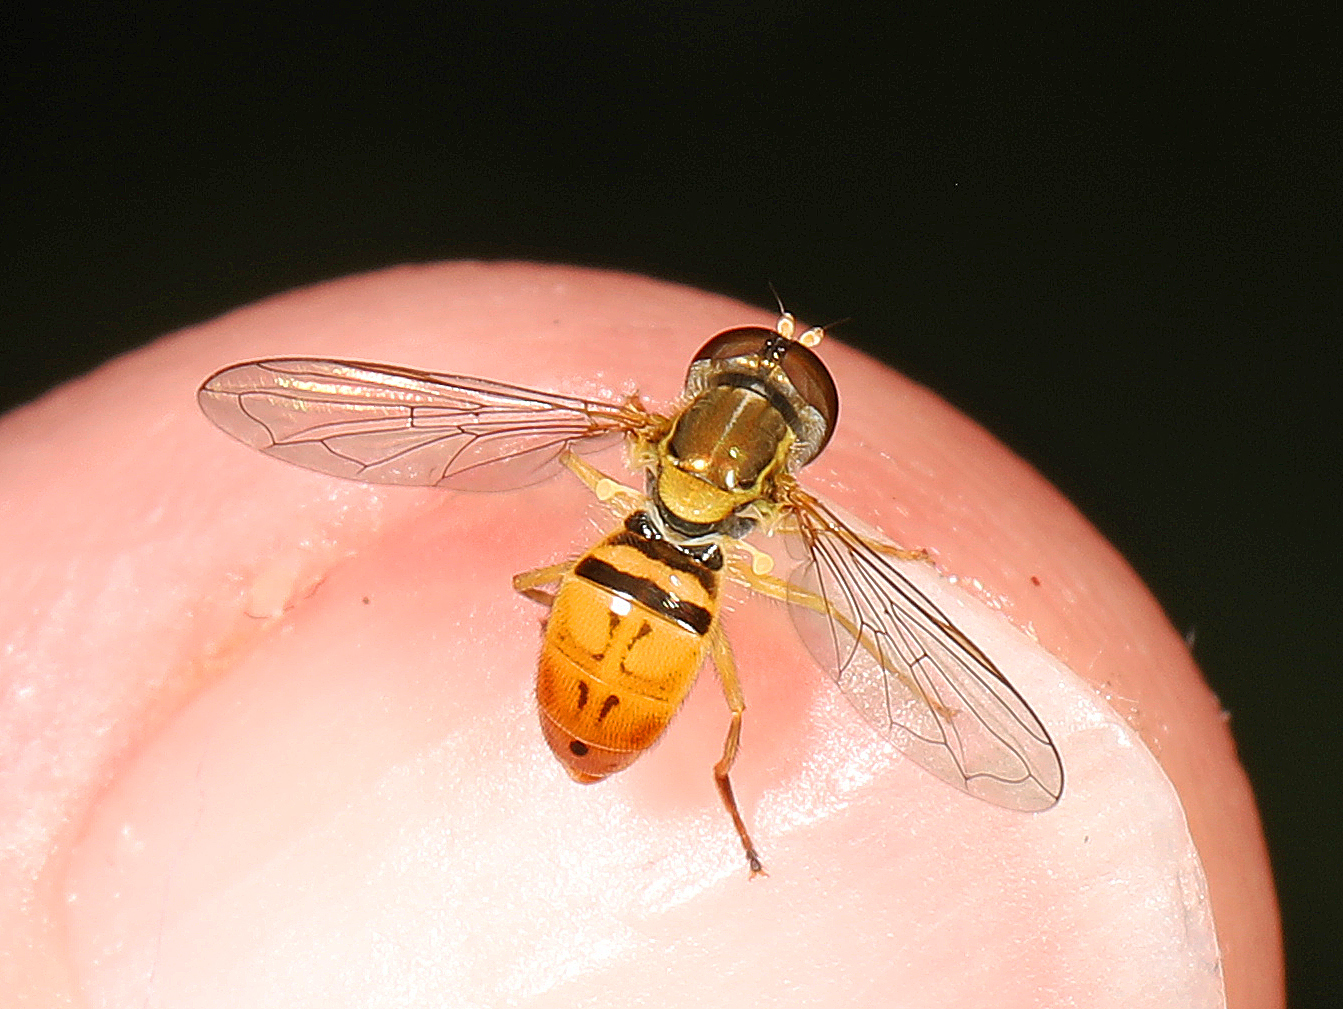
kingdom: Animalia
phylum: Arthropoda
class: Insecta
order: Diptera
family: Syrphidae
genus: Toxomerus
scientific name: Toxomerus marginatus
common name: Syrphid fly
